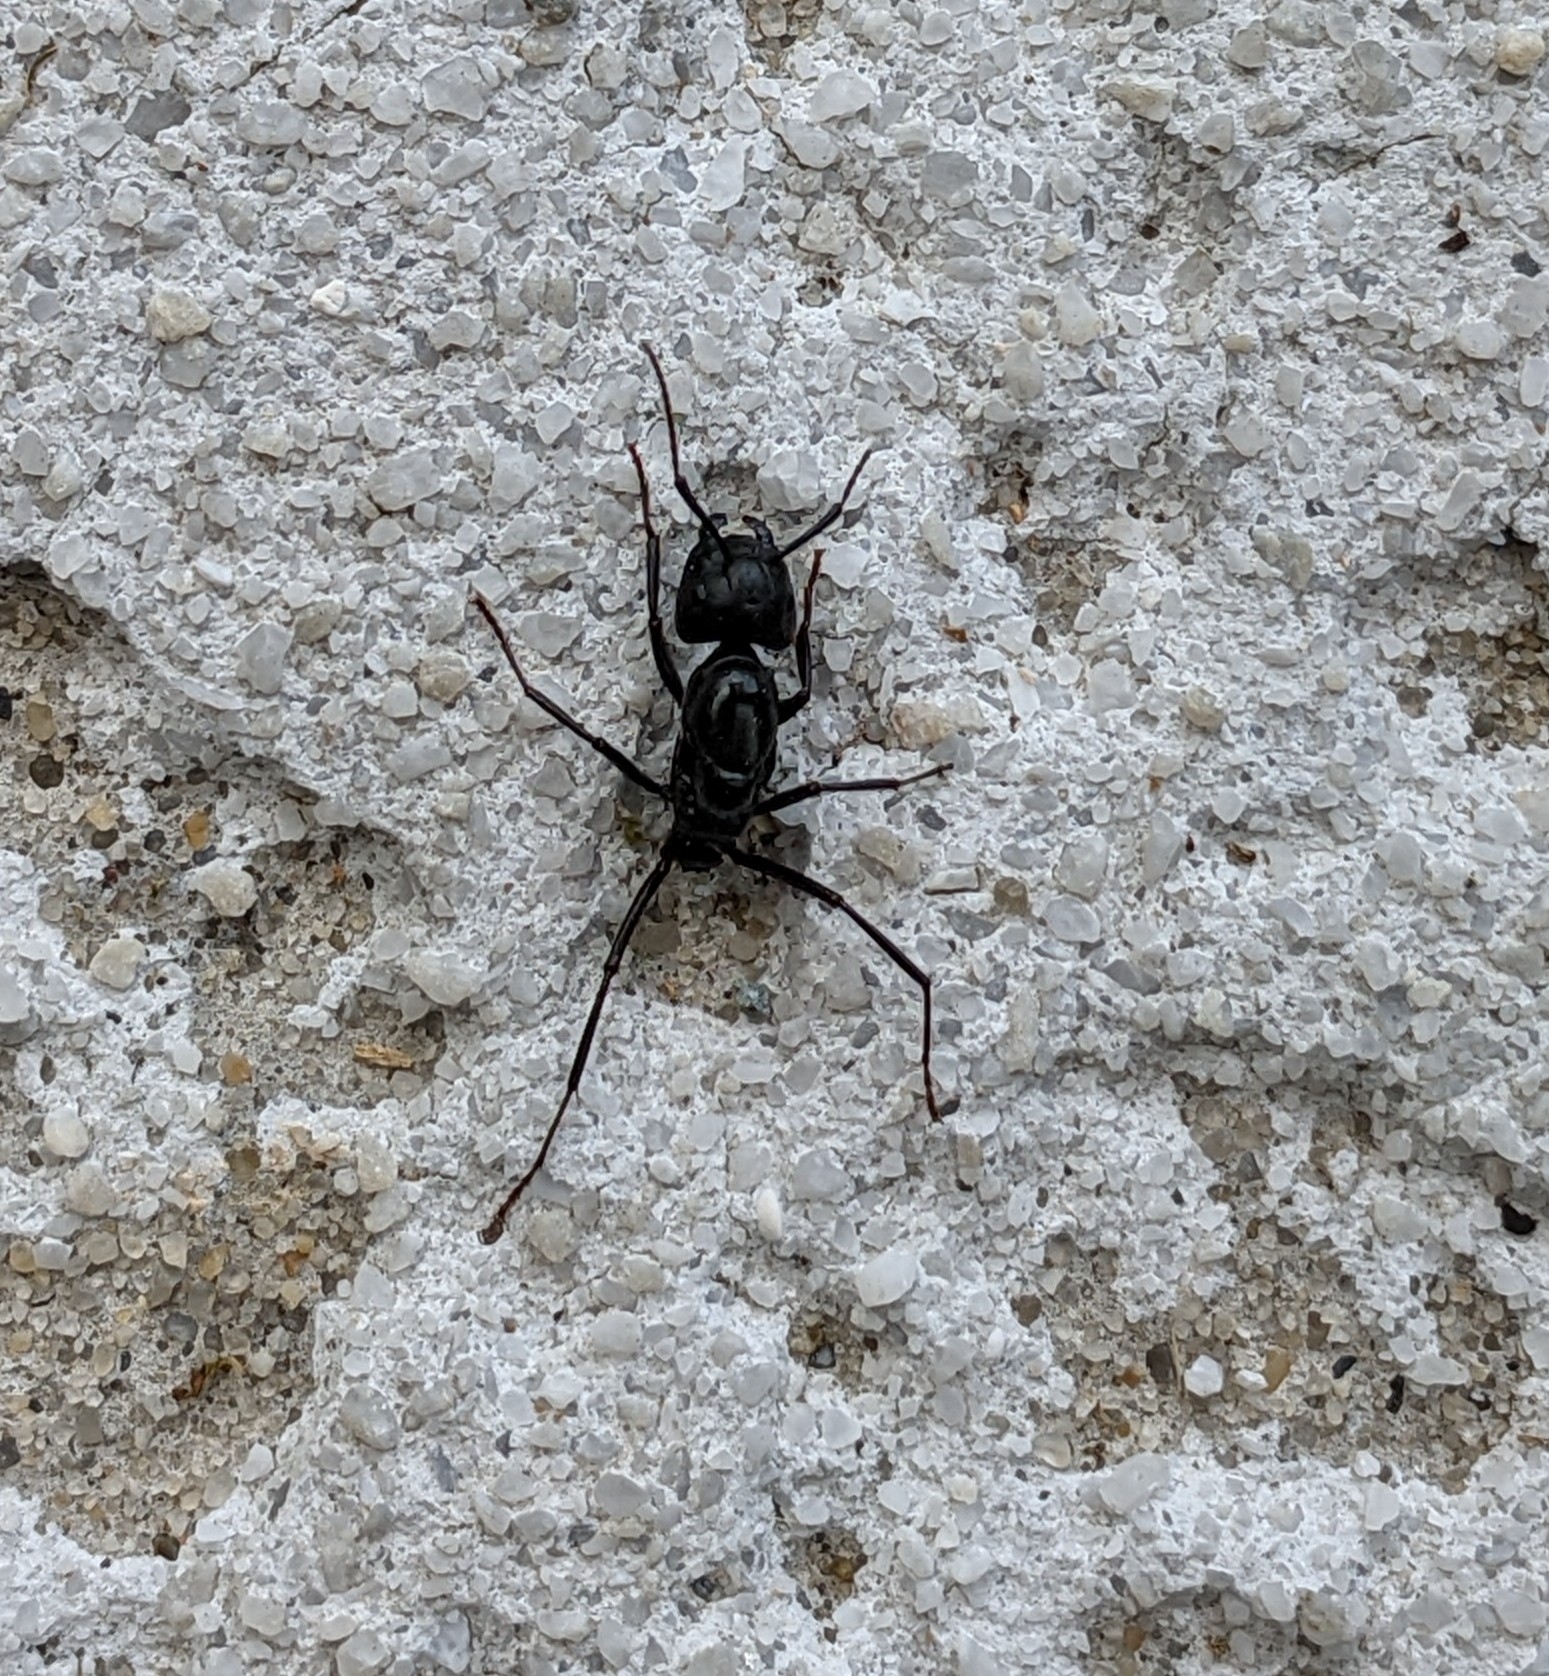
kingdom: Animalia
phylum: Arthropoda
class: Insecta
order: Hymenoptera
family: Formicidae
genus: Camponotus
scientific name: Camponotus pennsylvanicus
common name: Black carpenter ant
